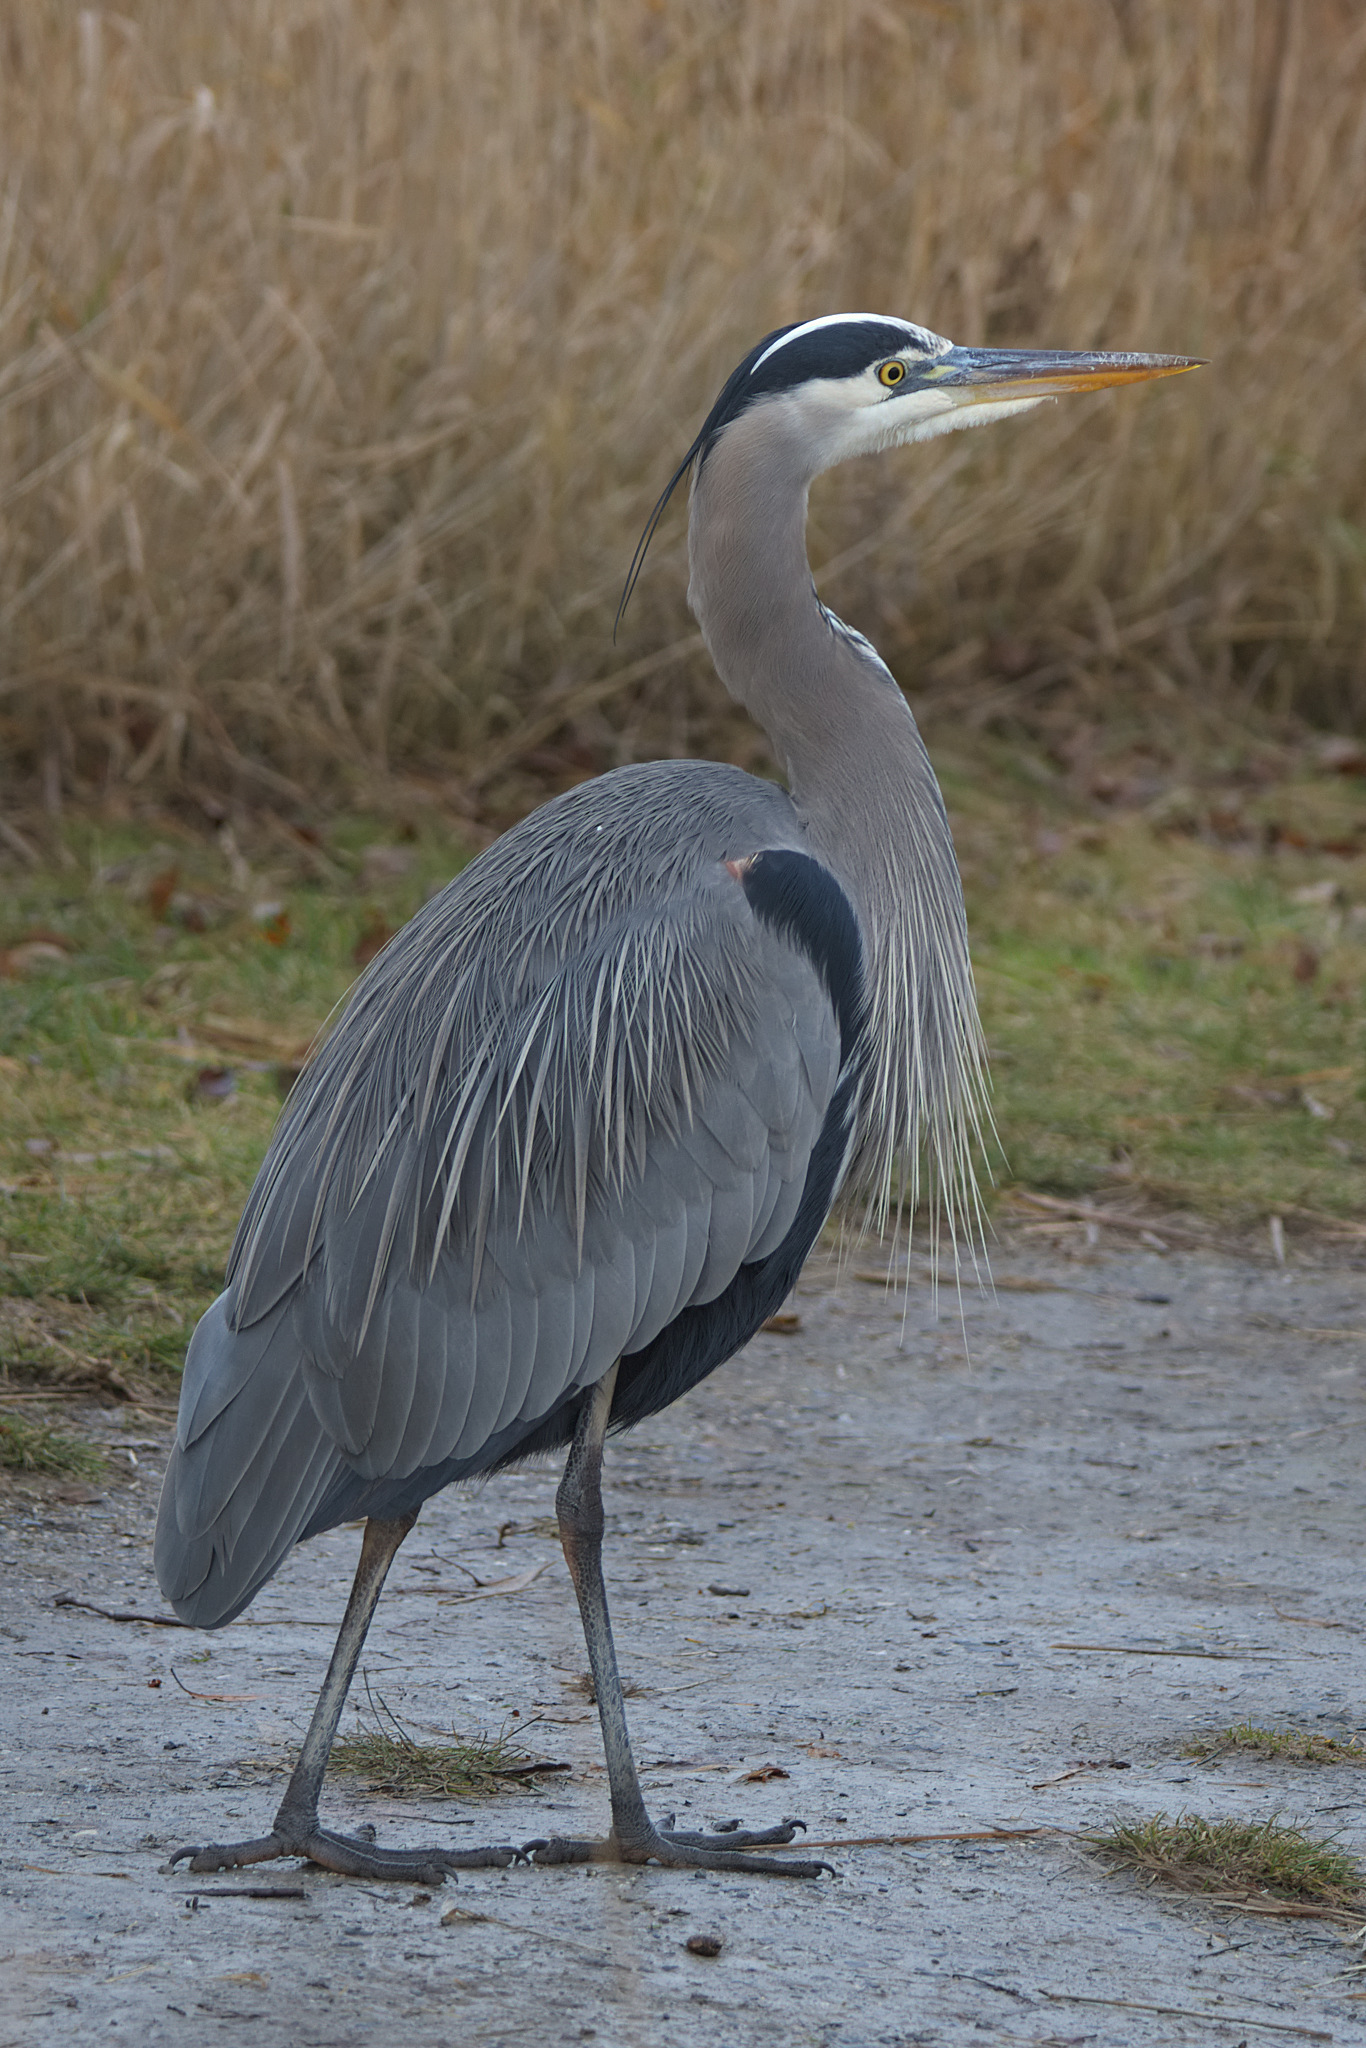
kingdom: Animalia
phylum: Chordata
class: Aves
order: Pelecaniformes
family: Ardeidae
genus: Ardea
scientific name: Ardea herodias
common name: Great blue heron
